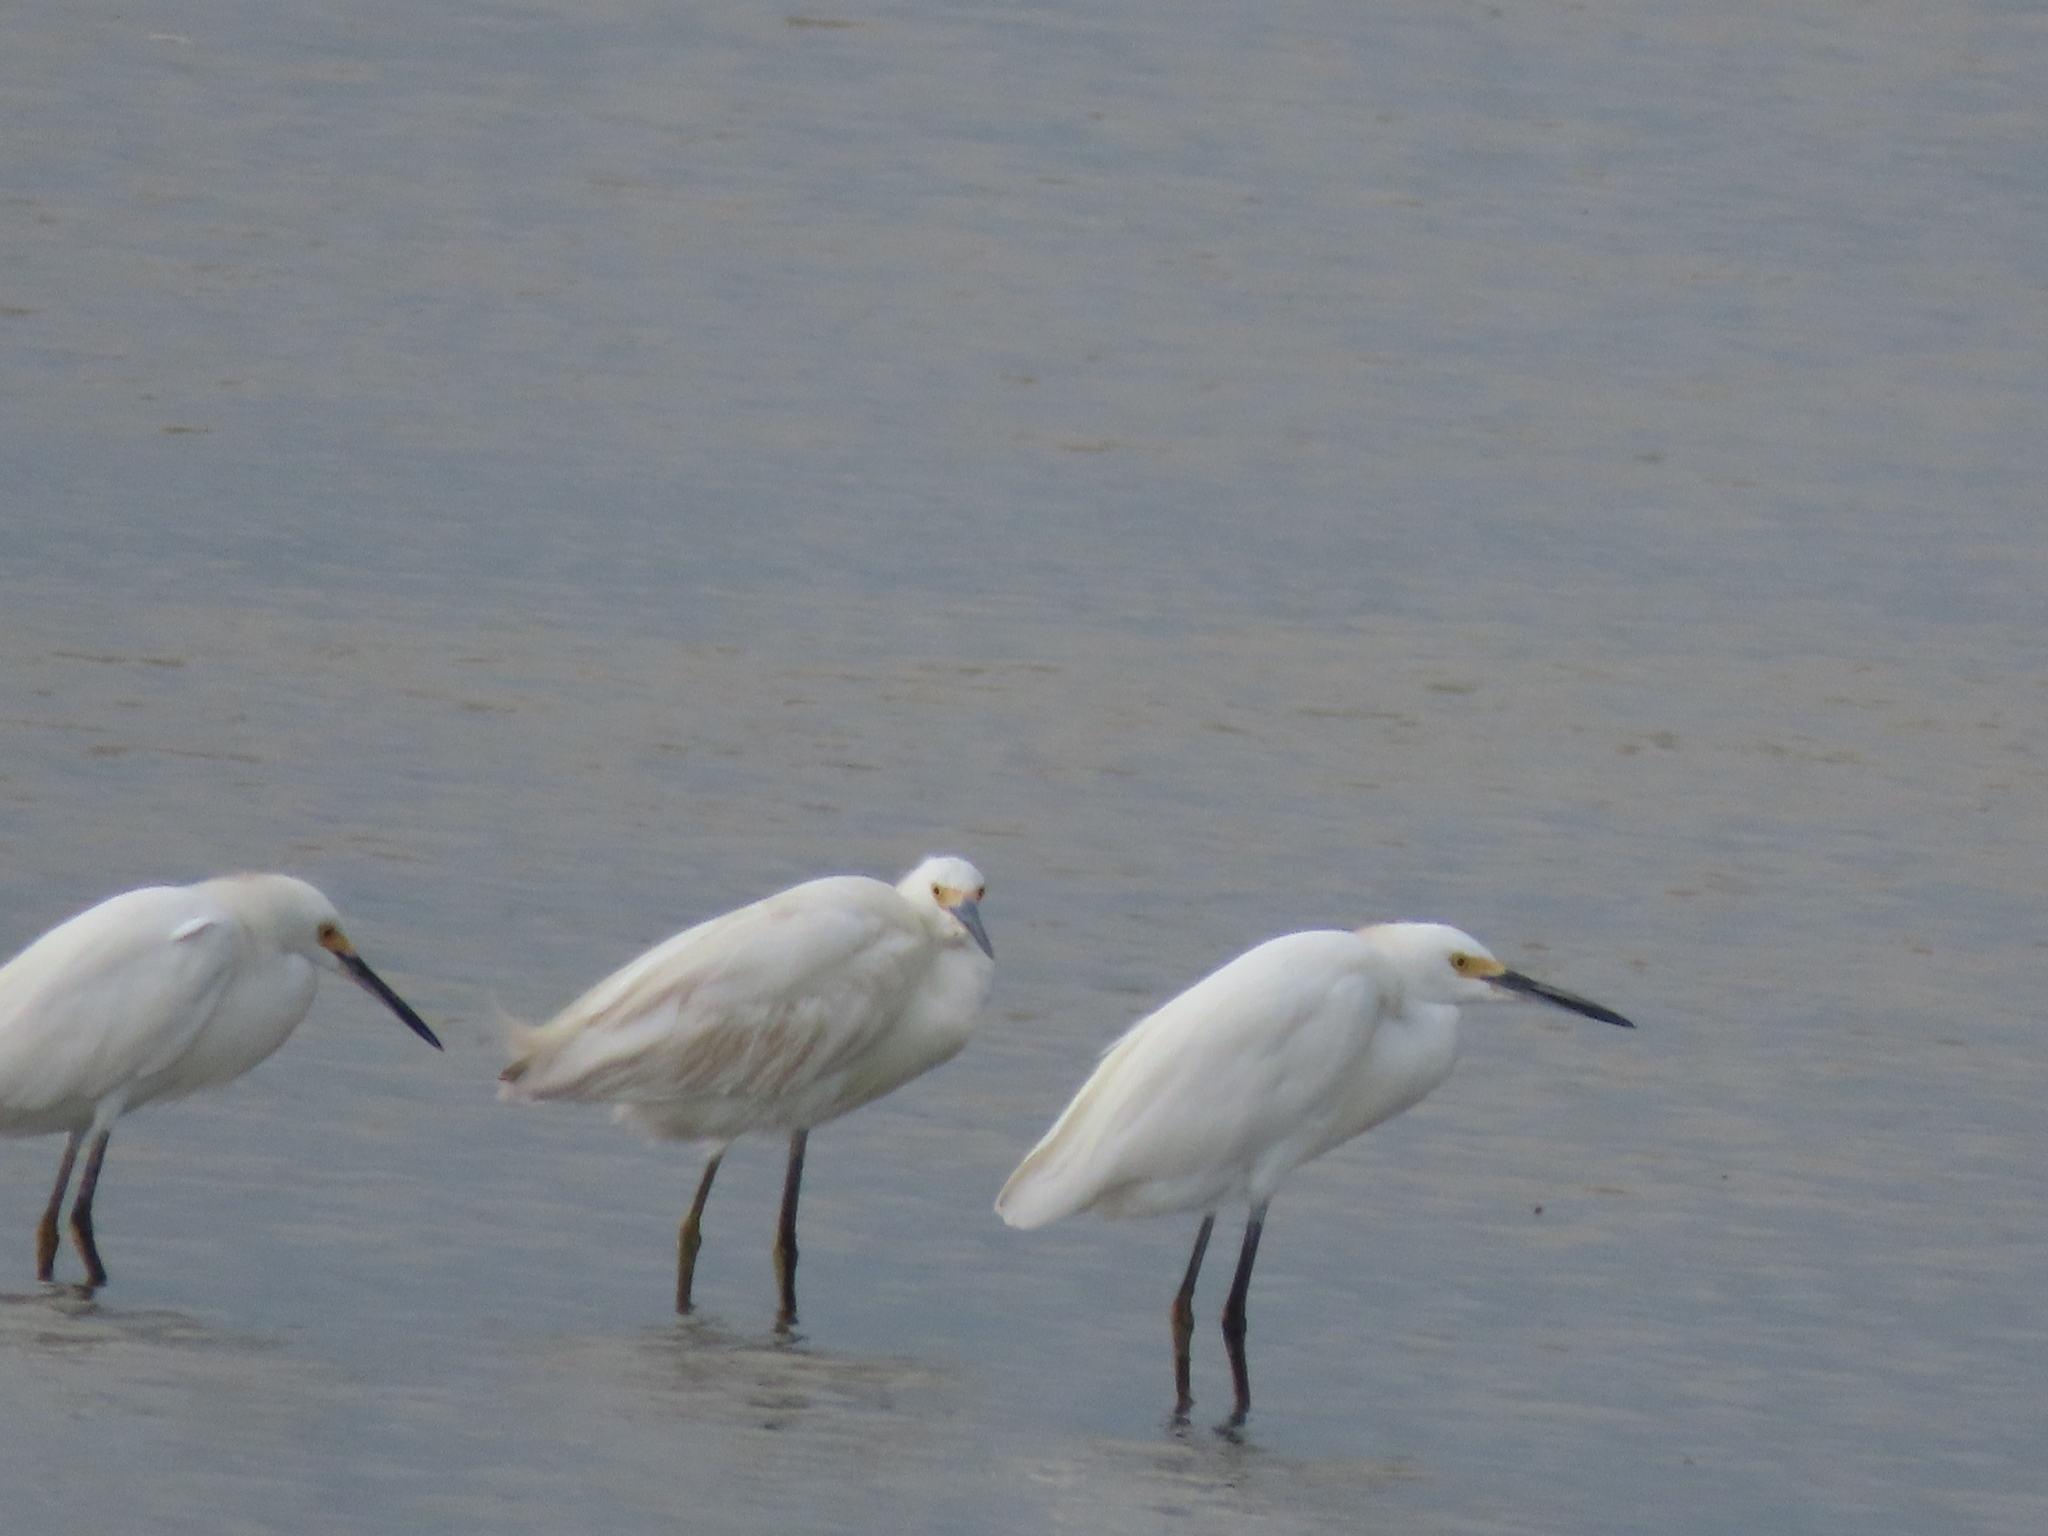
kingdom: Animalia
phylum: Chordata
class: Aves
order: Pelecaniformes
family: Ardeidae
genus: Egretta
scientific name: Egretta thula
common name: Snowy egret
